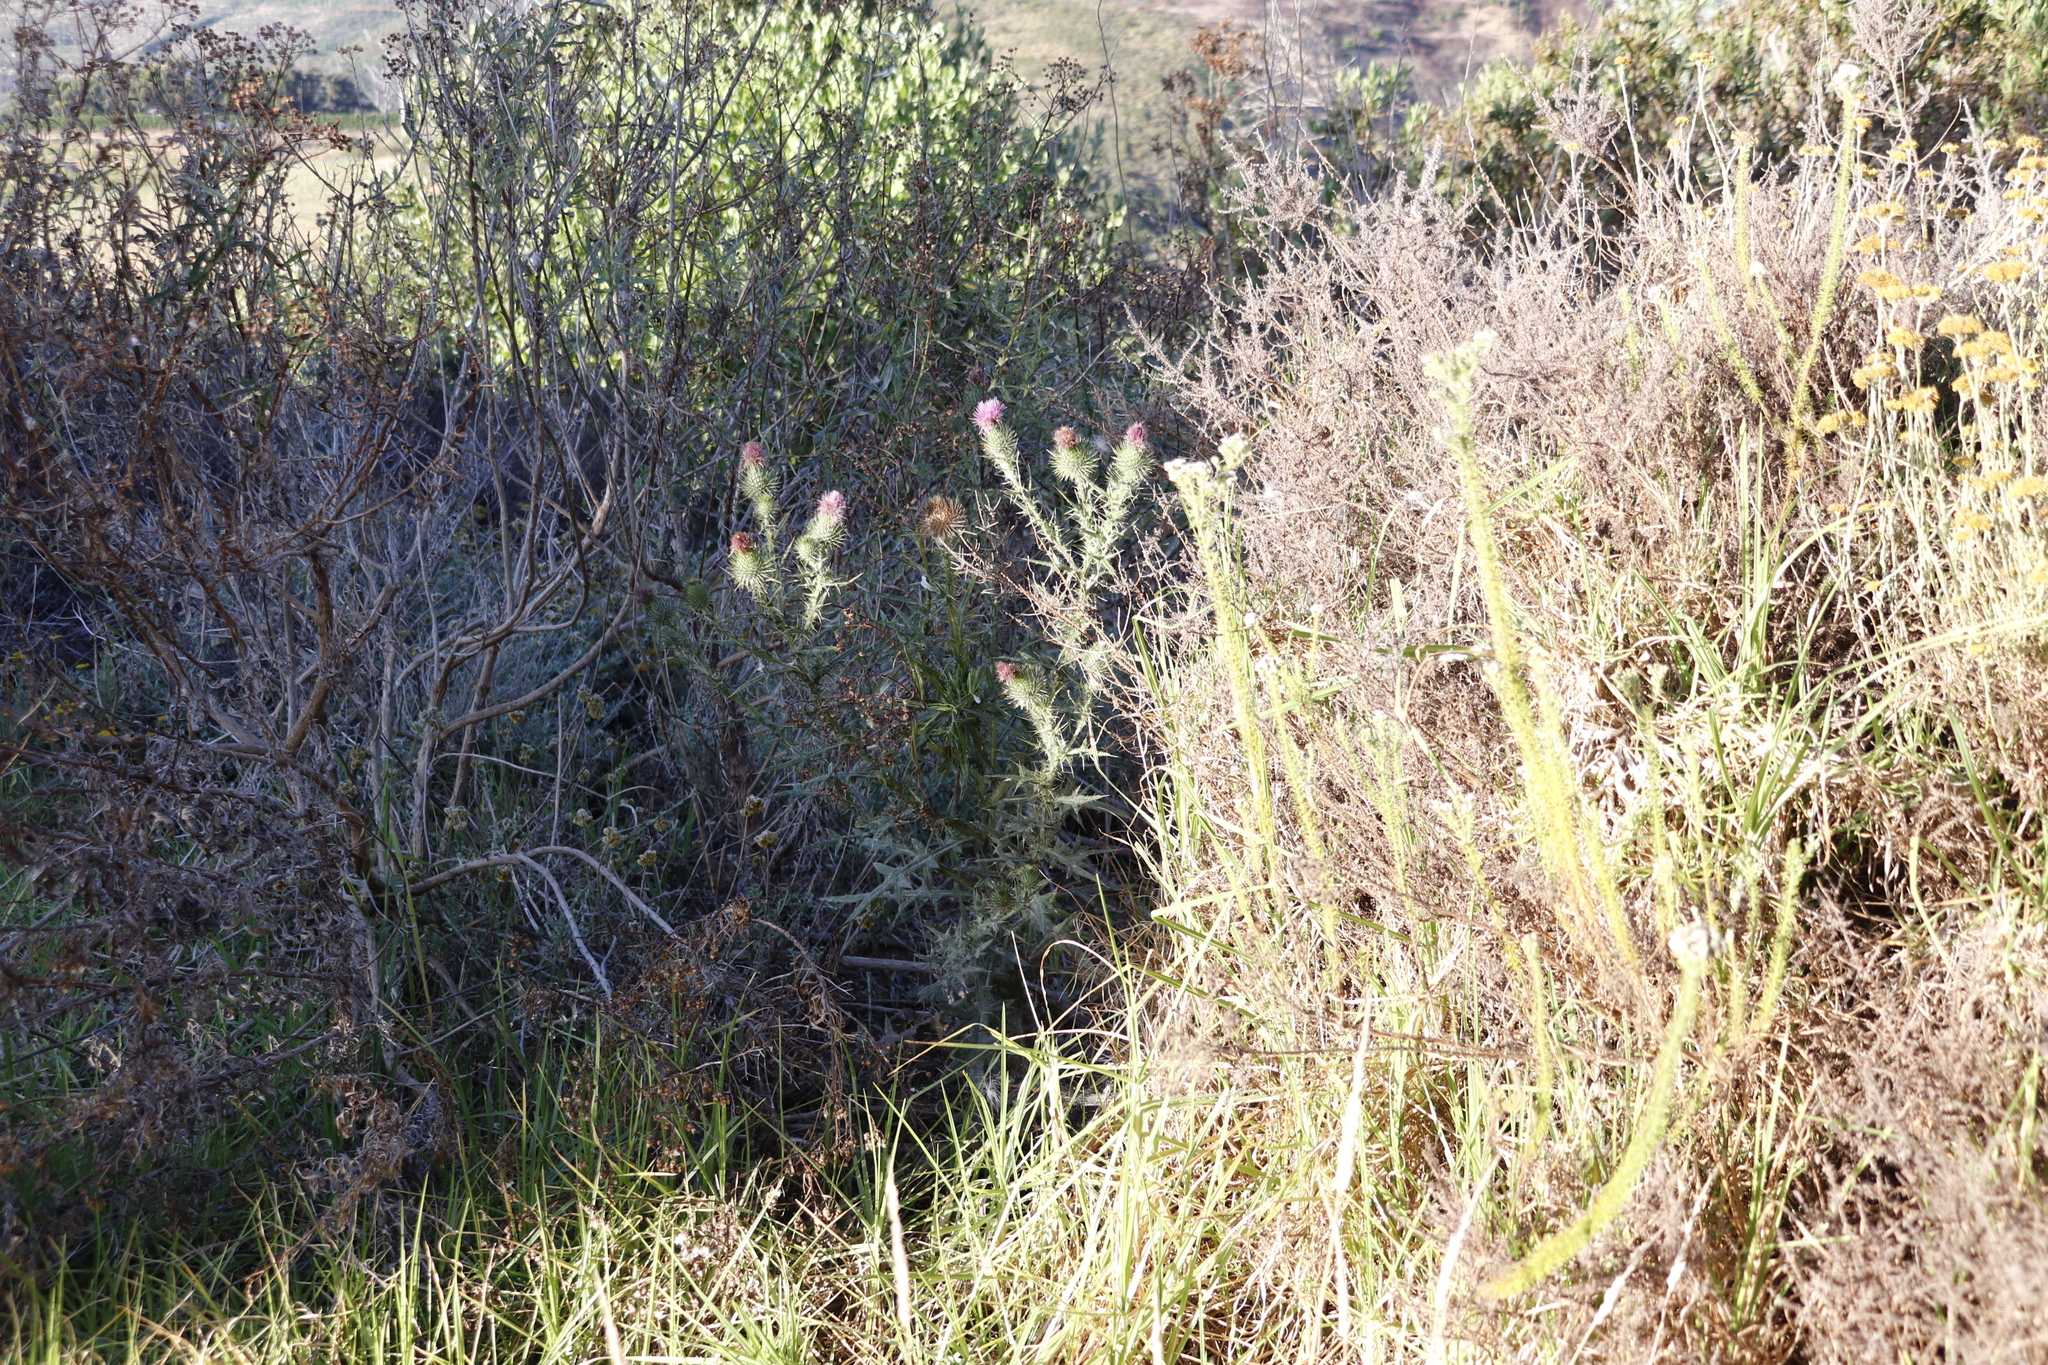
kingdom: Plantae
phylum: Tracheophyta
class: Magnoliopsida
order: Asterales
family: Asteraceae
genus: Cirsium
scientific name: Cirsium vulgare
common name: Bull thistle
